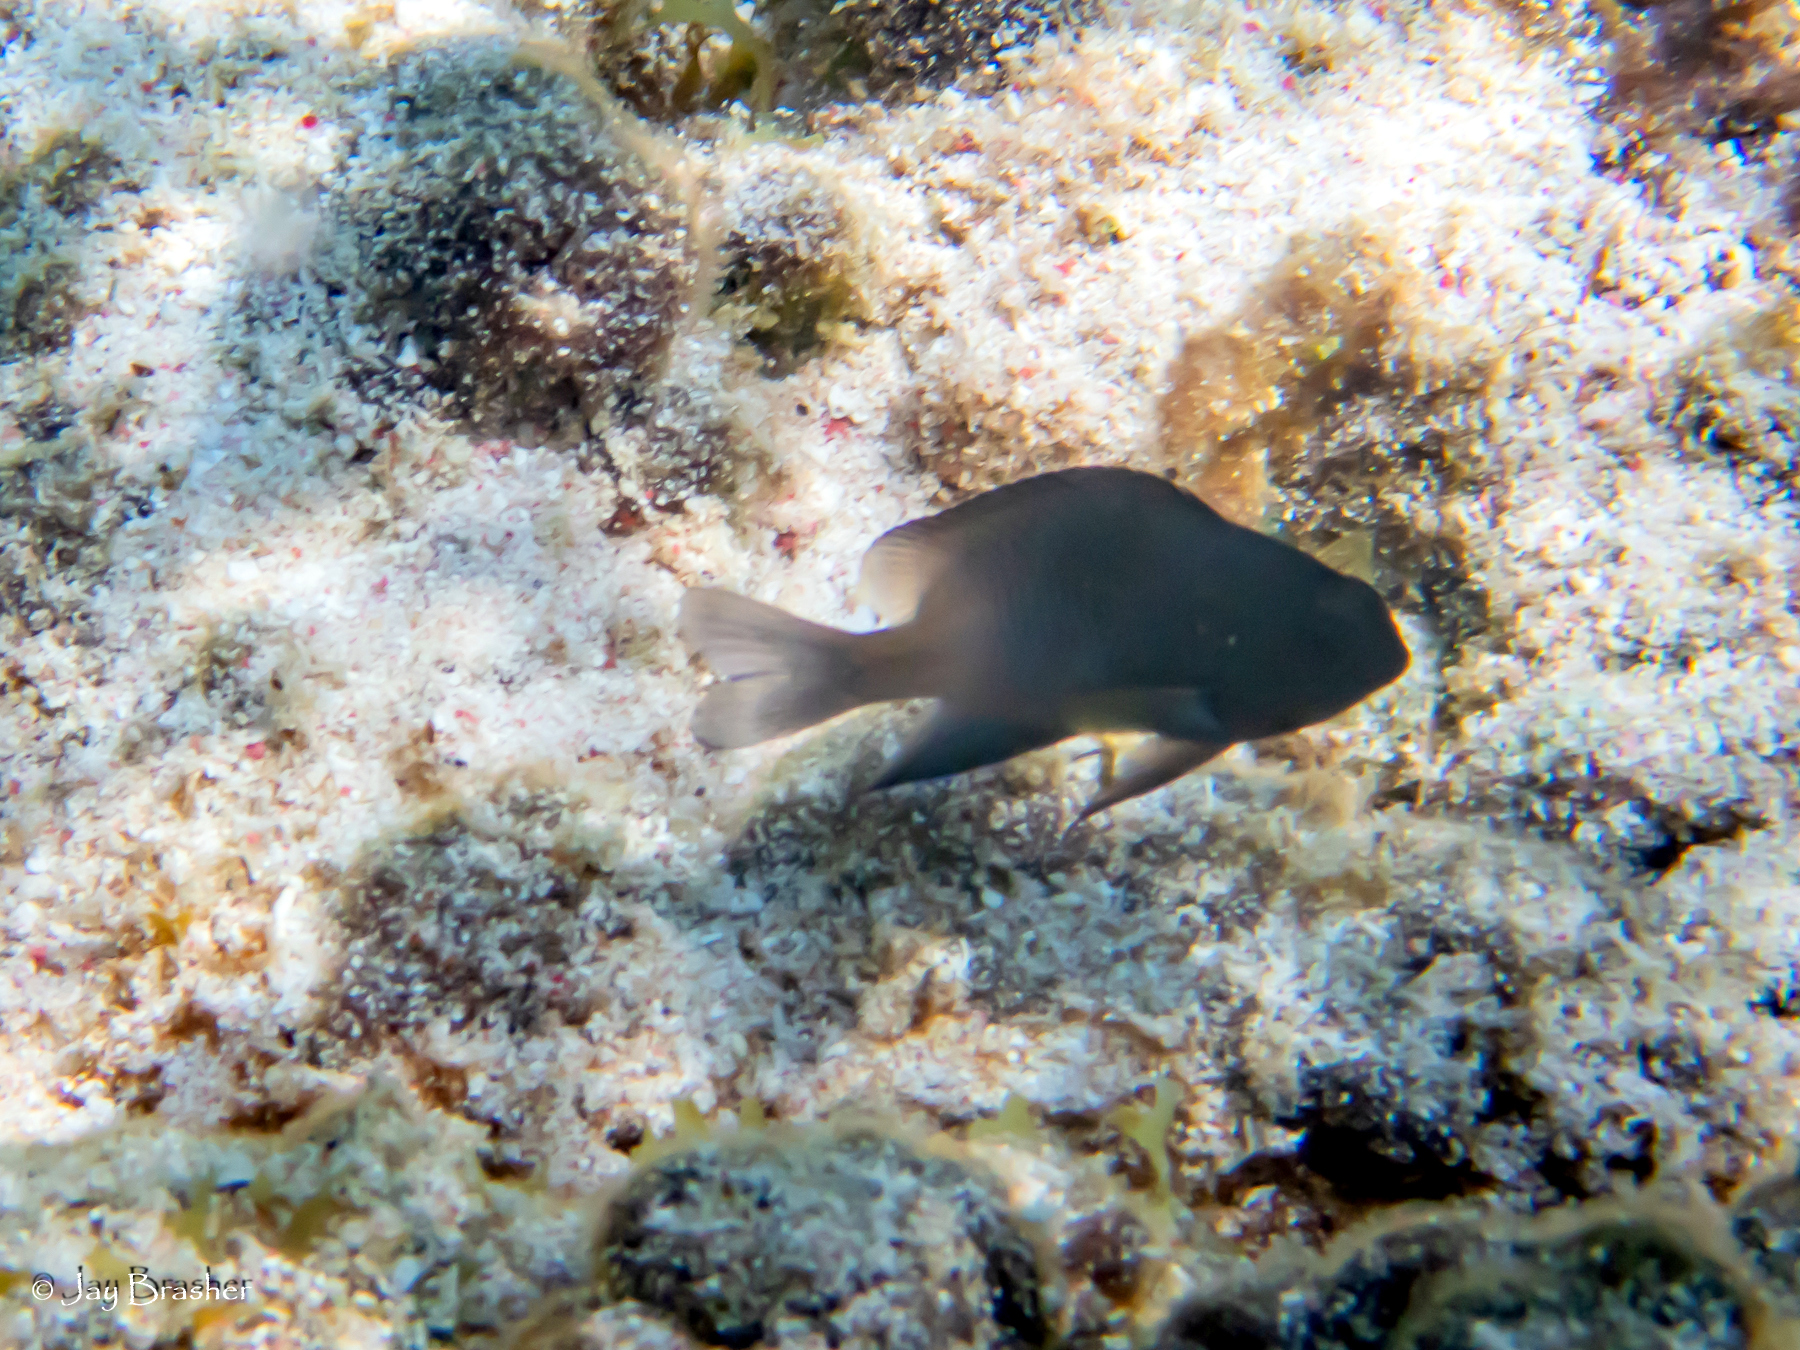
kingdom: Animalia
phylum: Chordata
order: Perciformes
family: Pomacentridae
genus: Stegastes
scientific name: Stegastes partitus
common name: Bicolor damselfish
